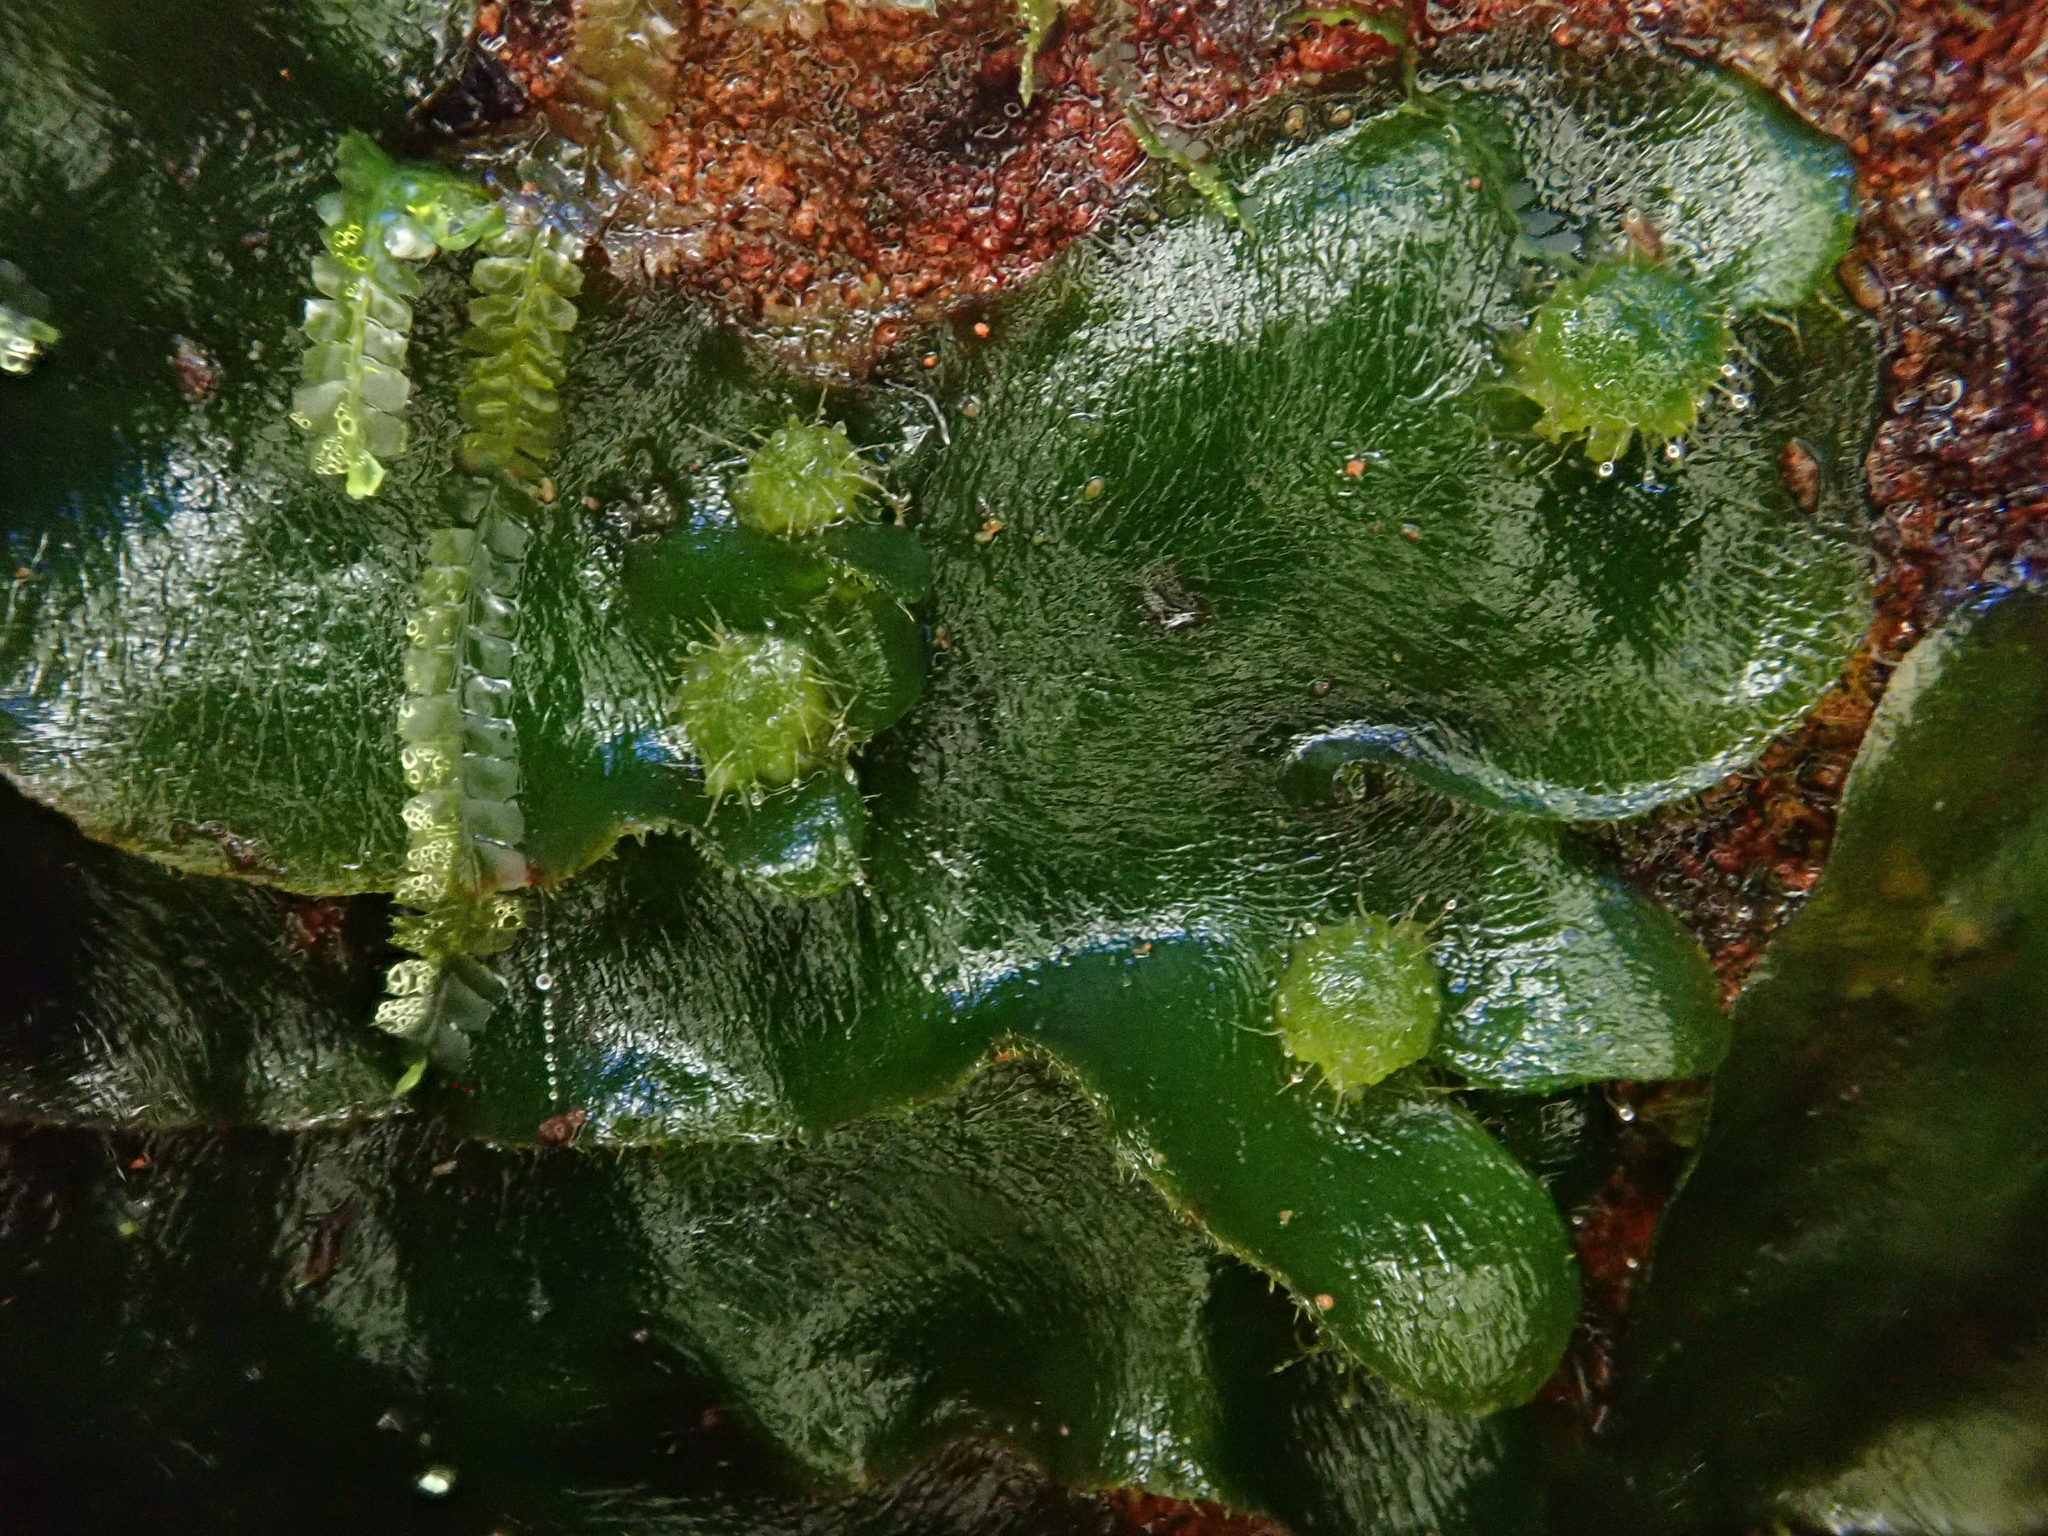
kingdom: Plantae
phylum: Marchantiophyta
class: Marchantiopsida
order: Marchantiales
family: Dumortieraceae
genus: Dumortiera
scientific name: Dumortiera hirsuta
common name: Dumortier's liverwort
